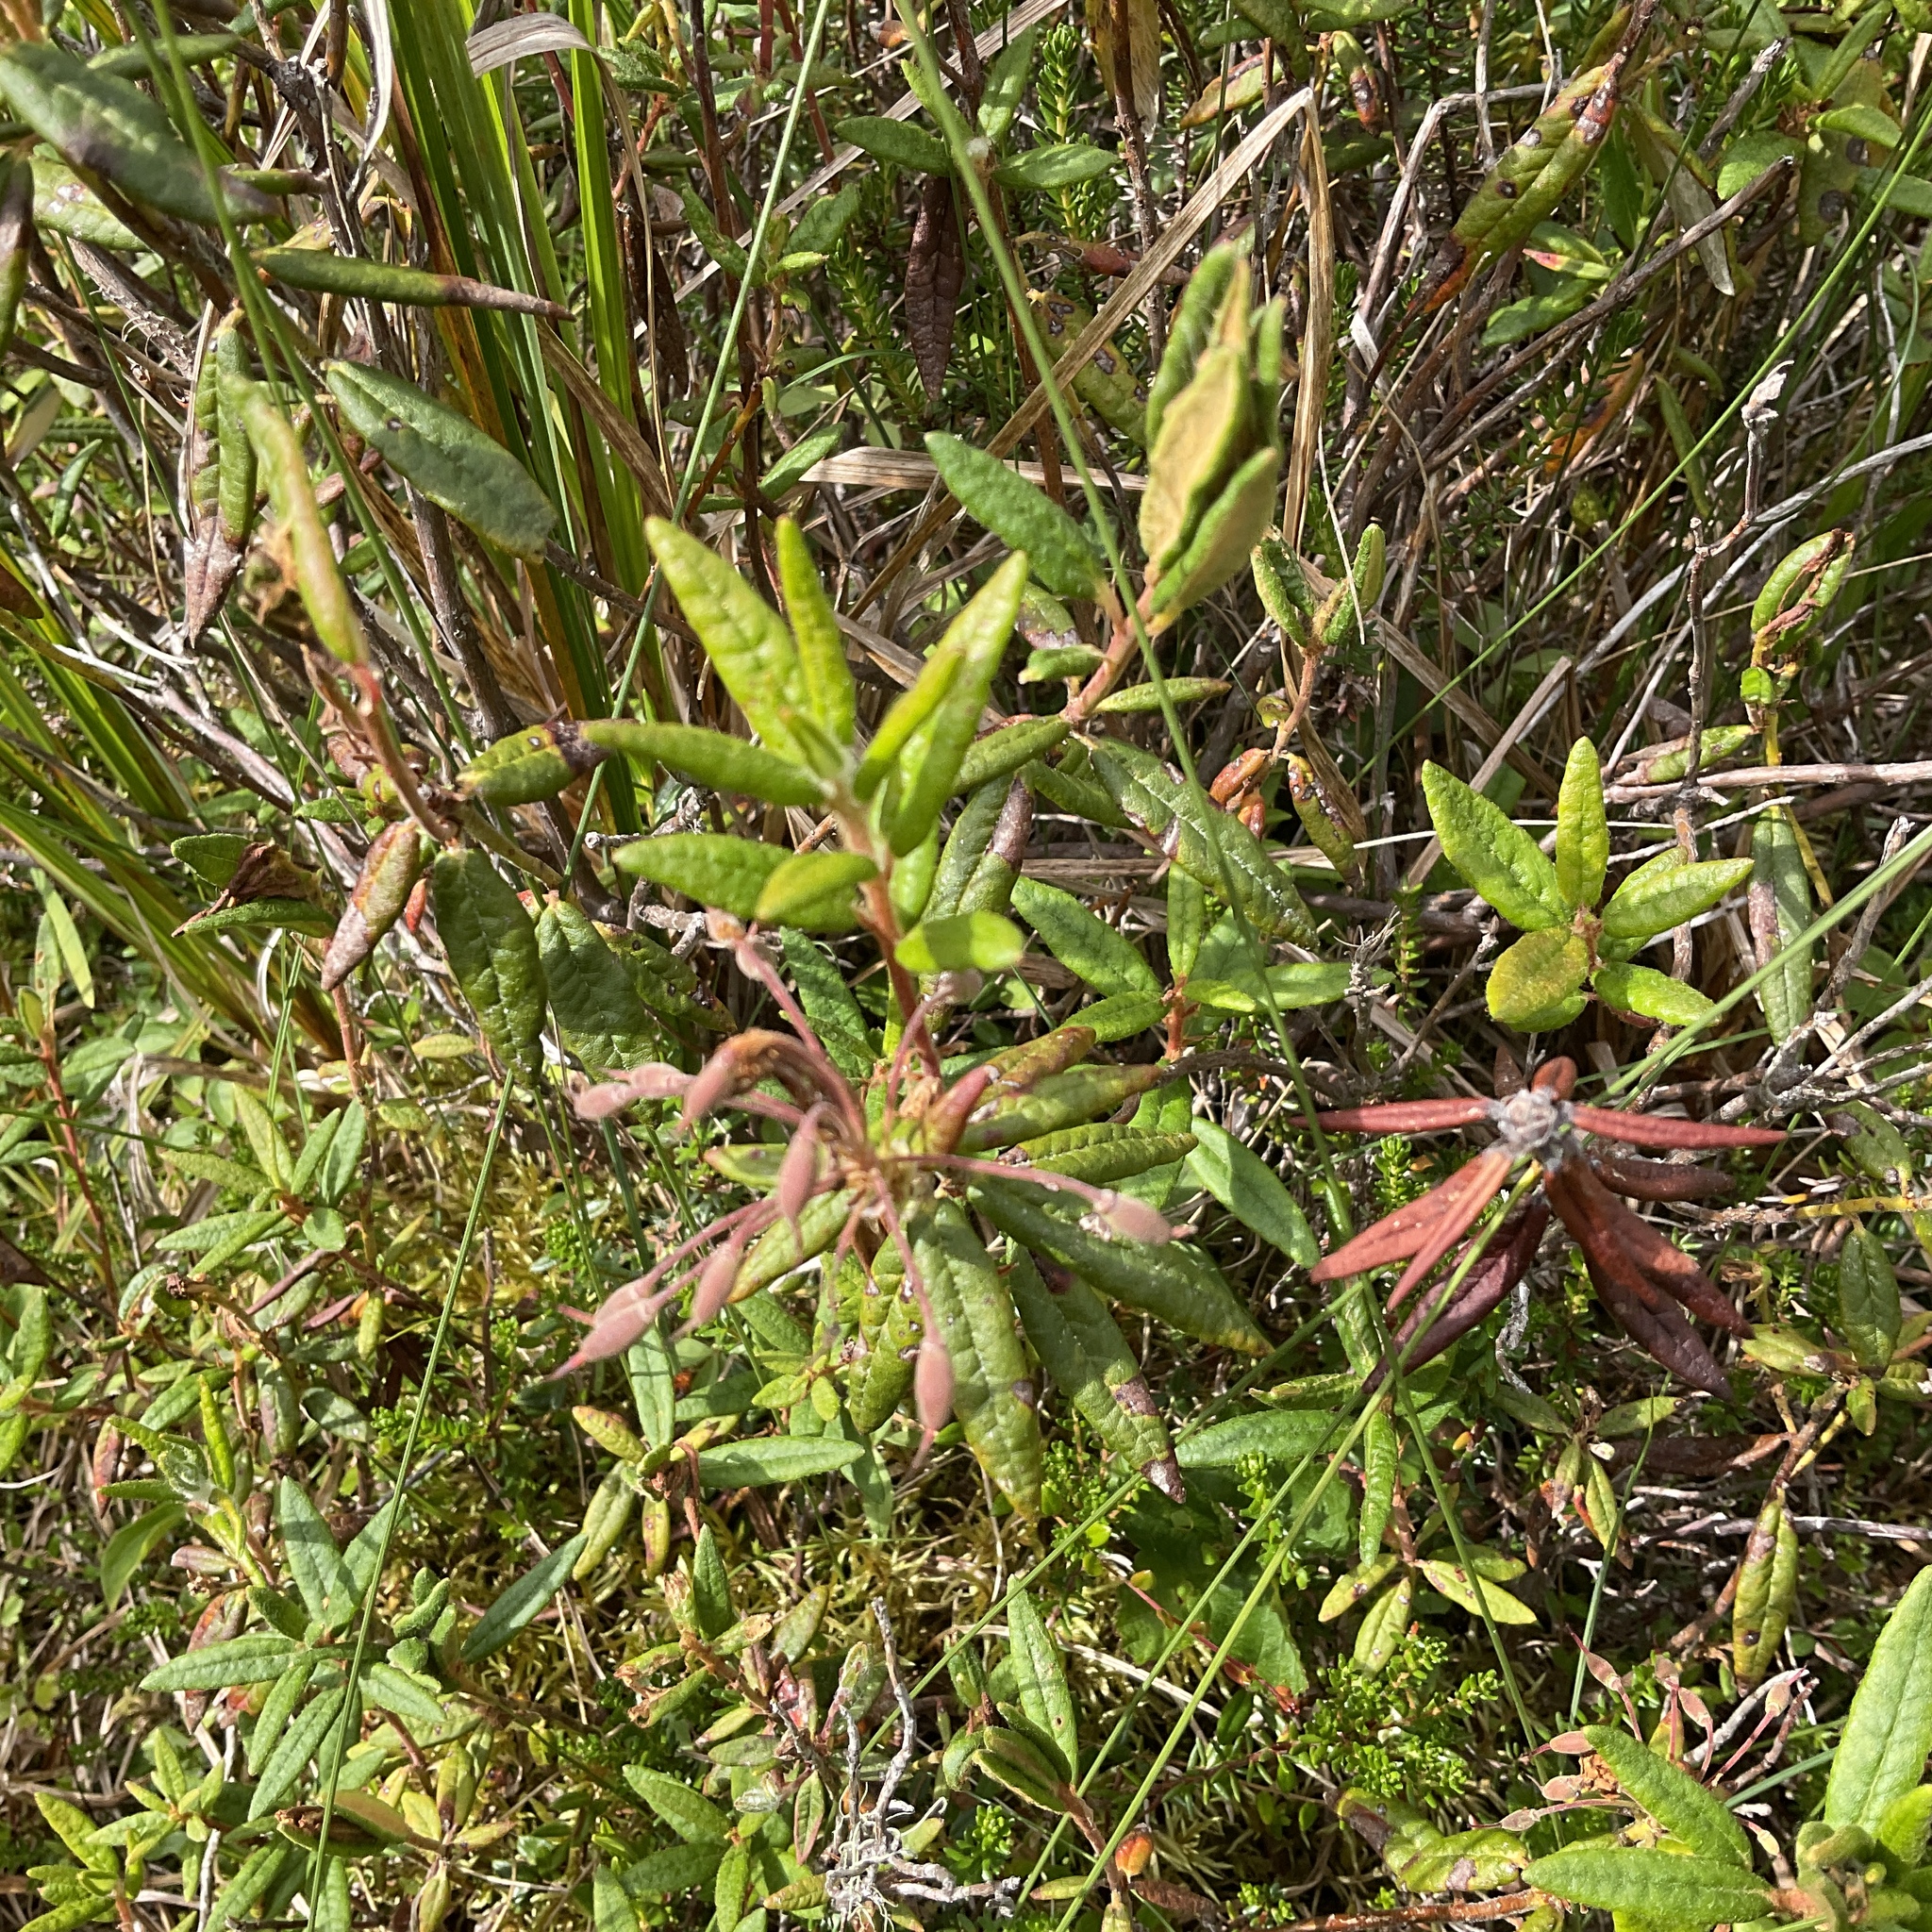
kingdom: Plantae
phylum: Tracheophyta
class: Magnoliopsida
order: Ericales
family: Ericaceae
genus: Rhododendron
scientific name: Rhododendron groenlandicum
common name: Bog labrador tea
